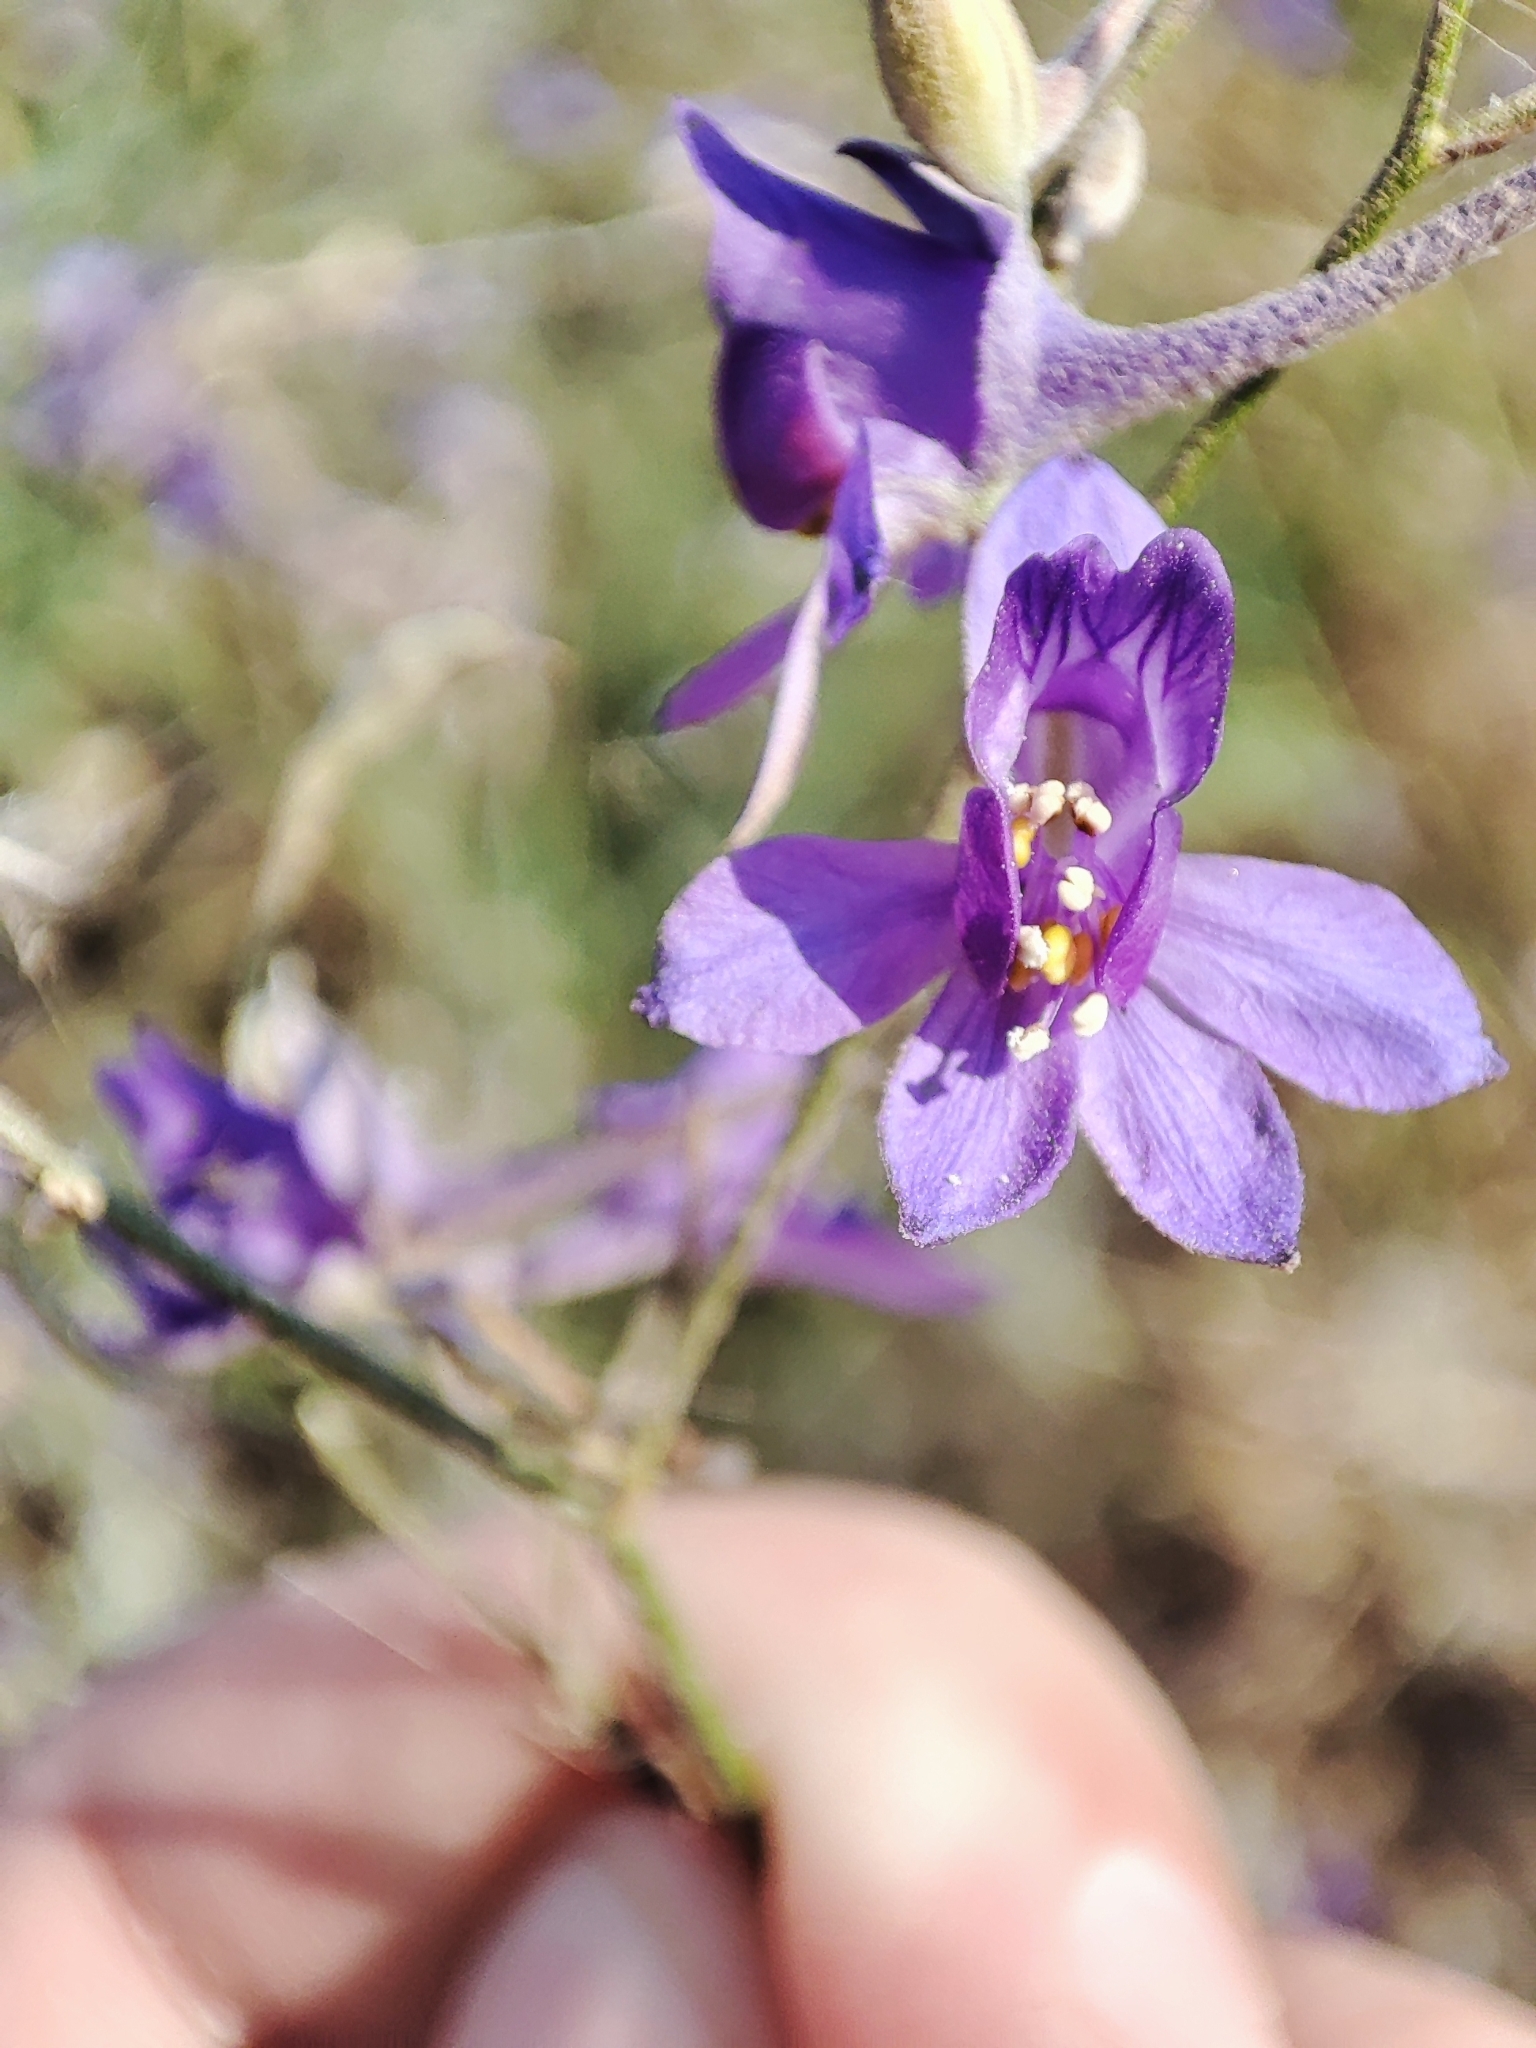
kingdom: Plantae
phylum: Tracheophyta
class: Magnoliopsida
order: Ranunculales
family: Ranunculaceae
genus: Delphinium
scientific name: Delphinium consolida
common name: Branching larkspur
